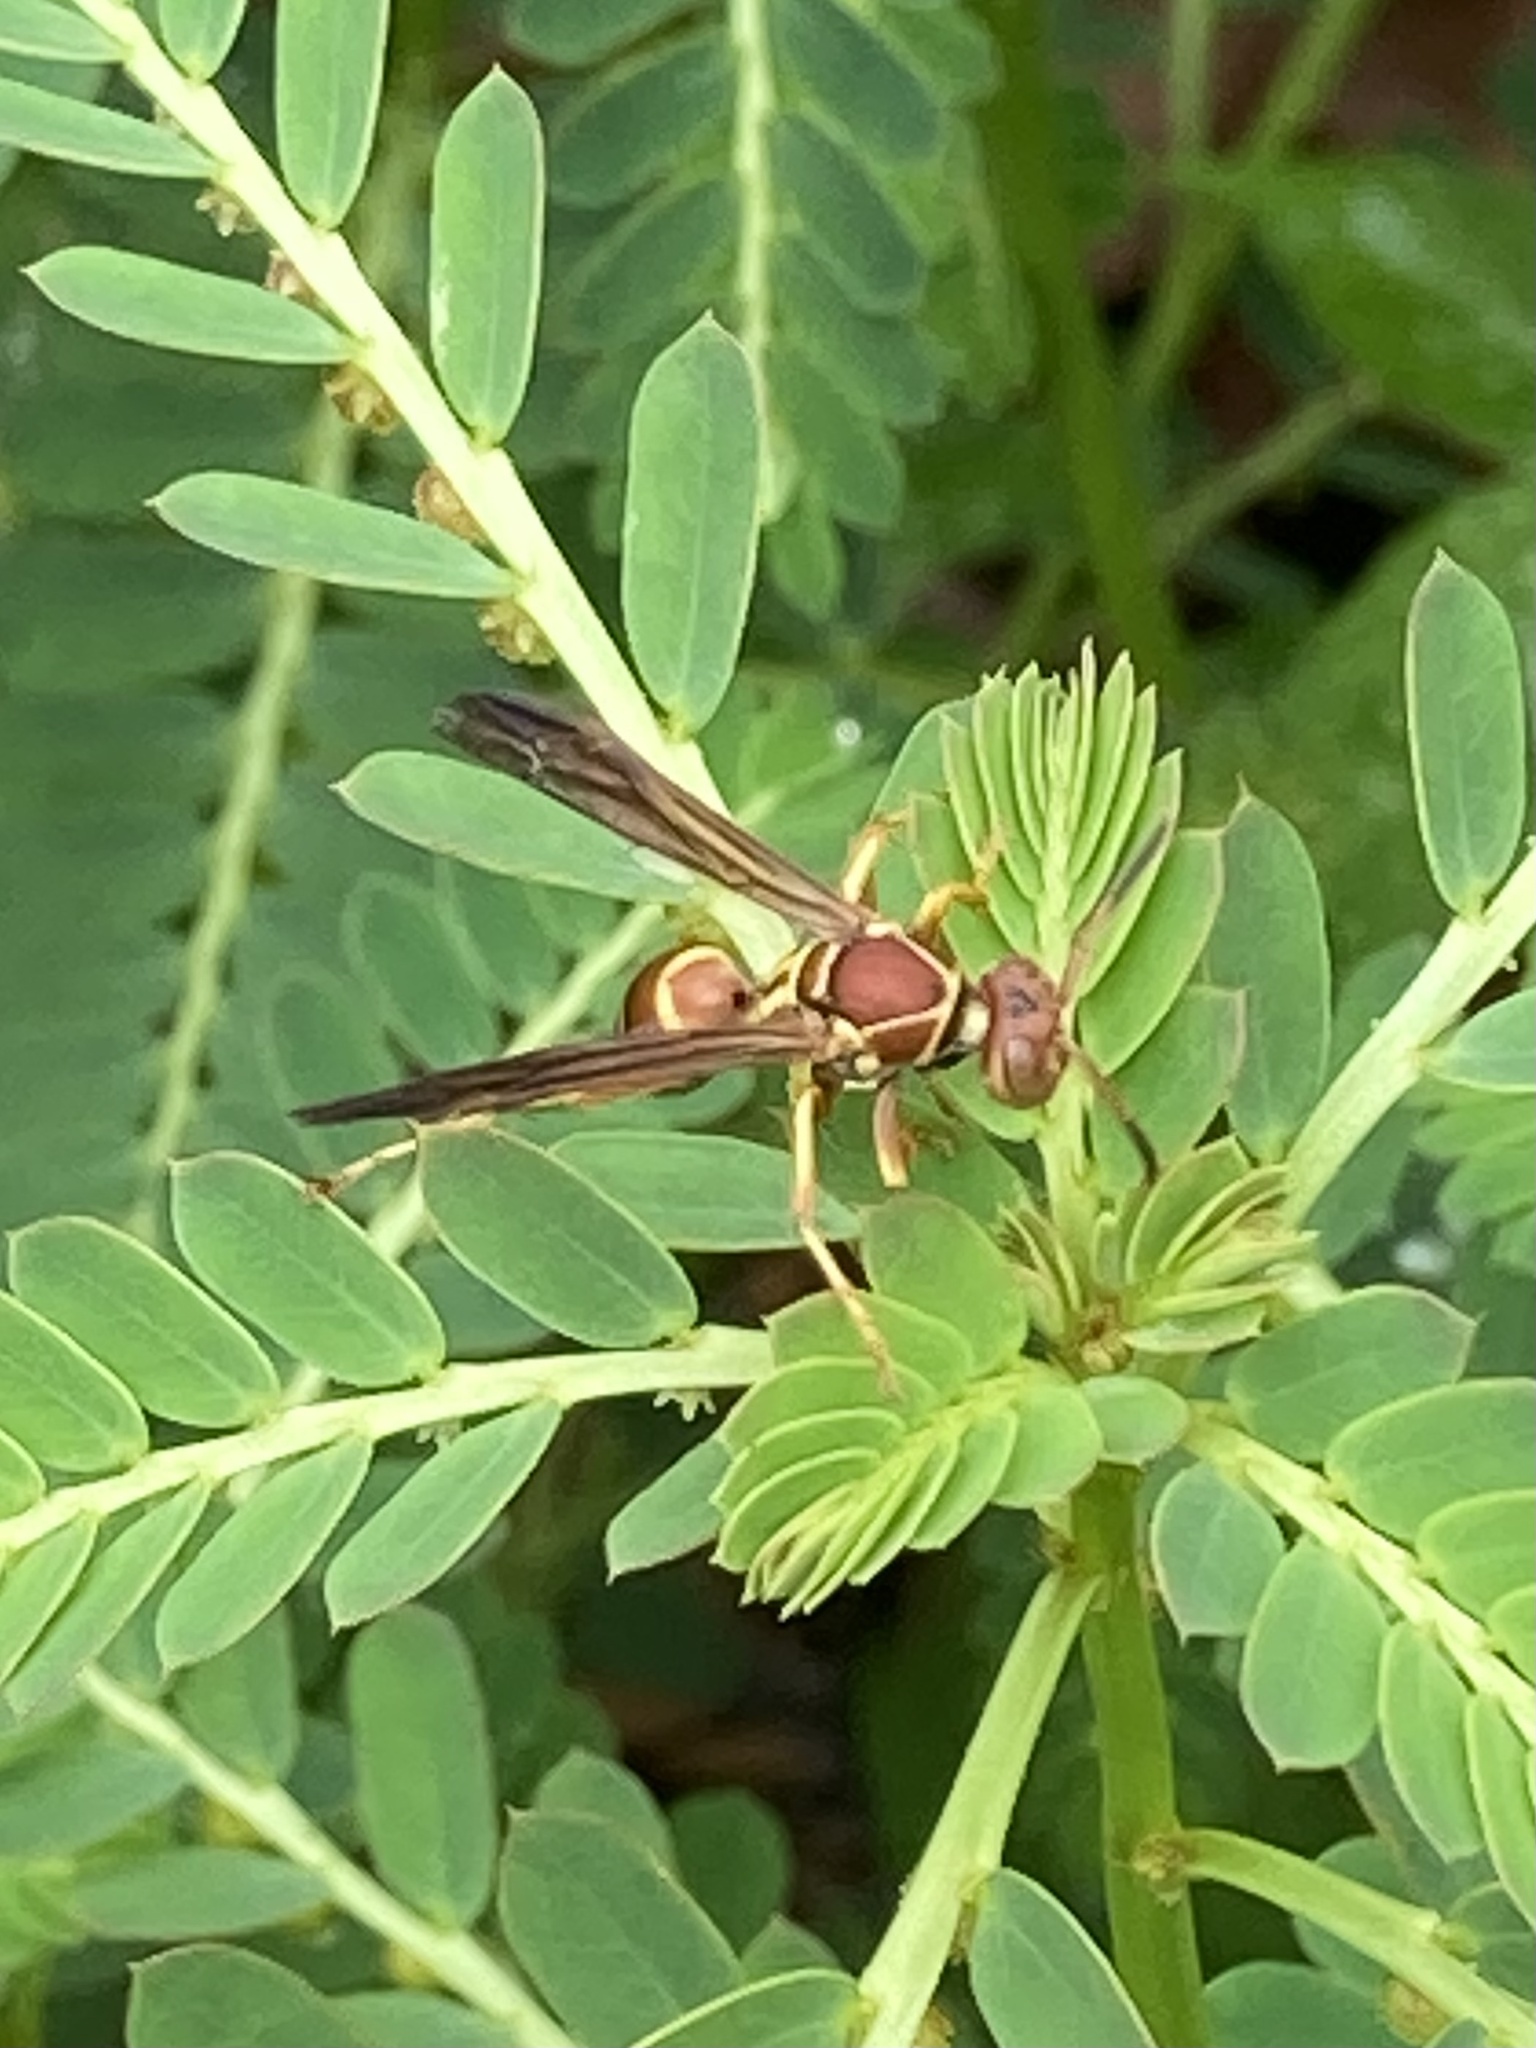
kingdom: Animalia
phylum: Arthropoda
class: Insecta
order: Hymenoptera
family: Eumenidae
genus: Polistes
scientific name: Polistes dorsalis
